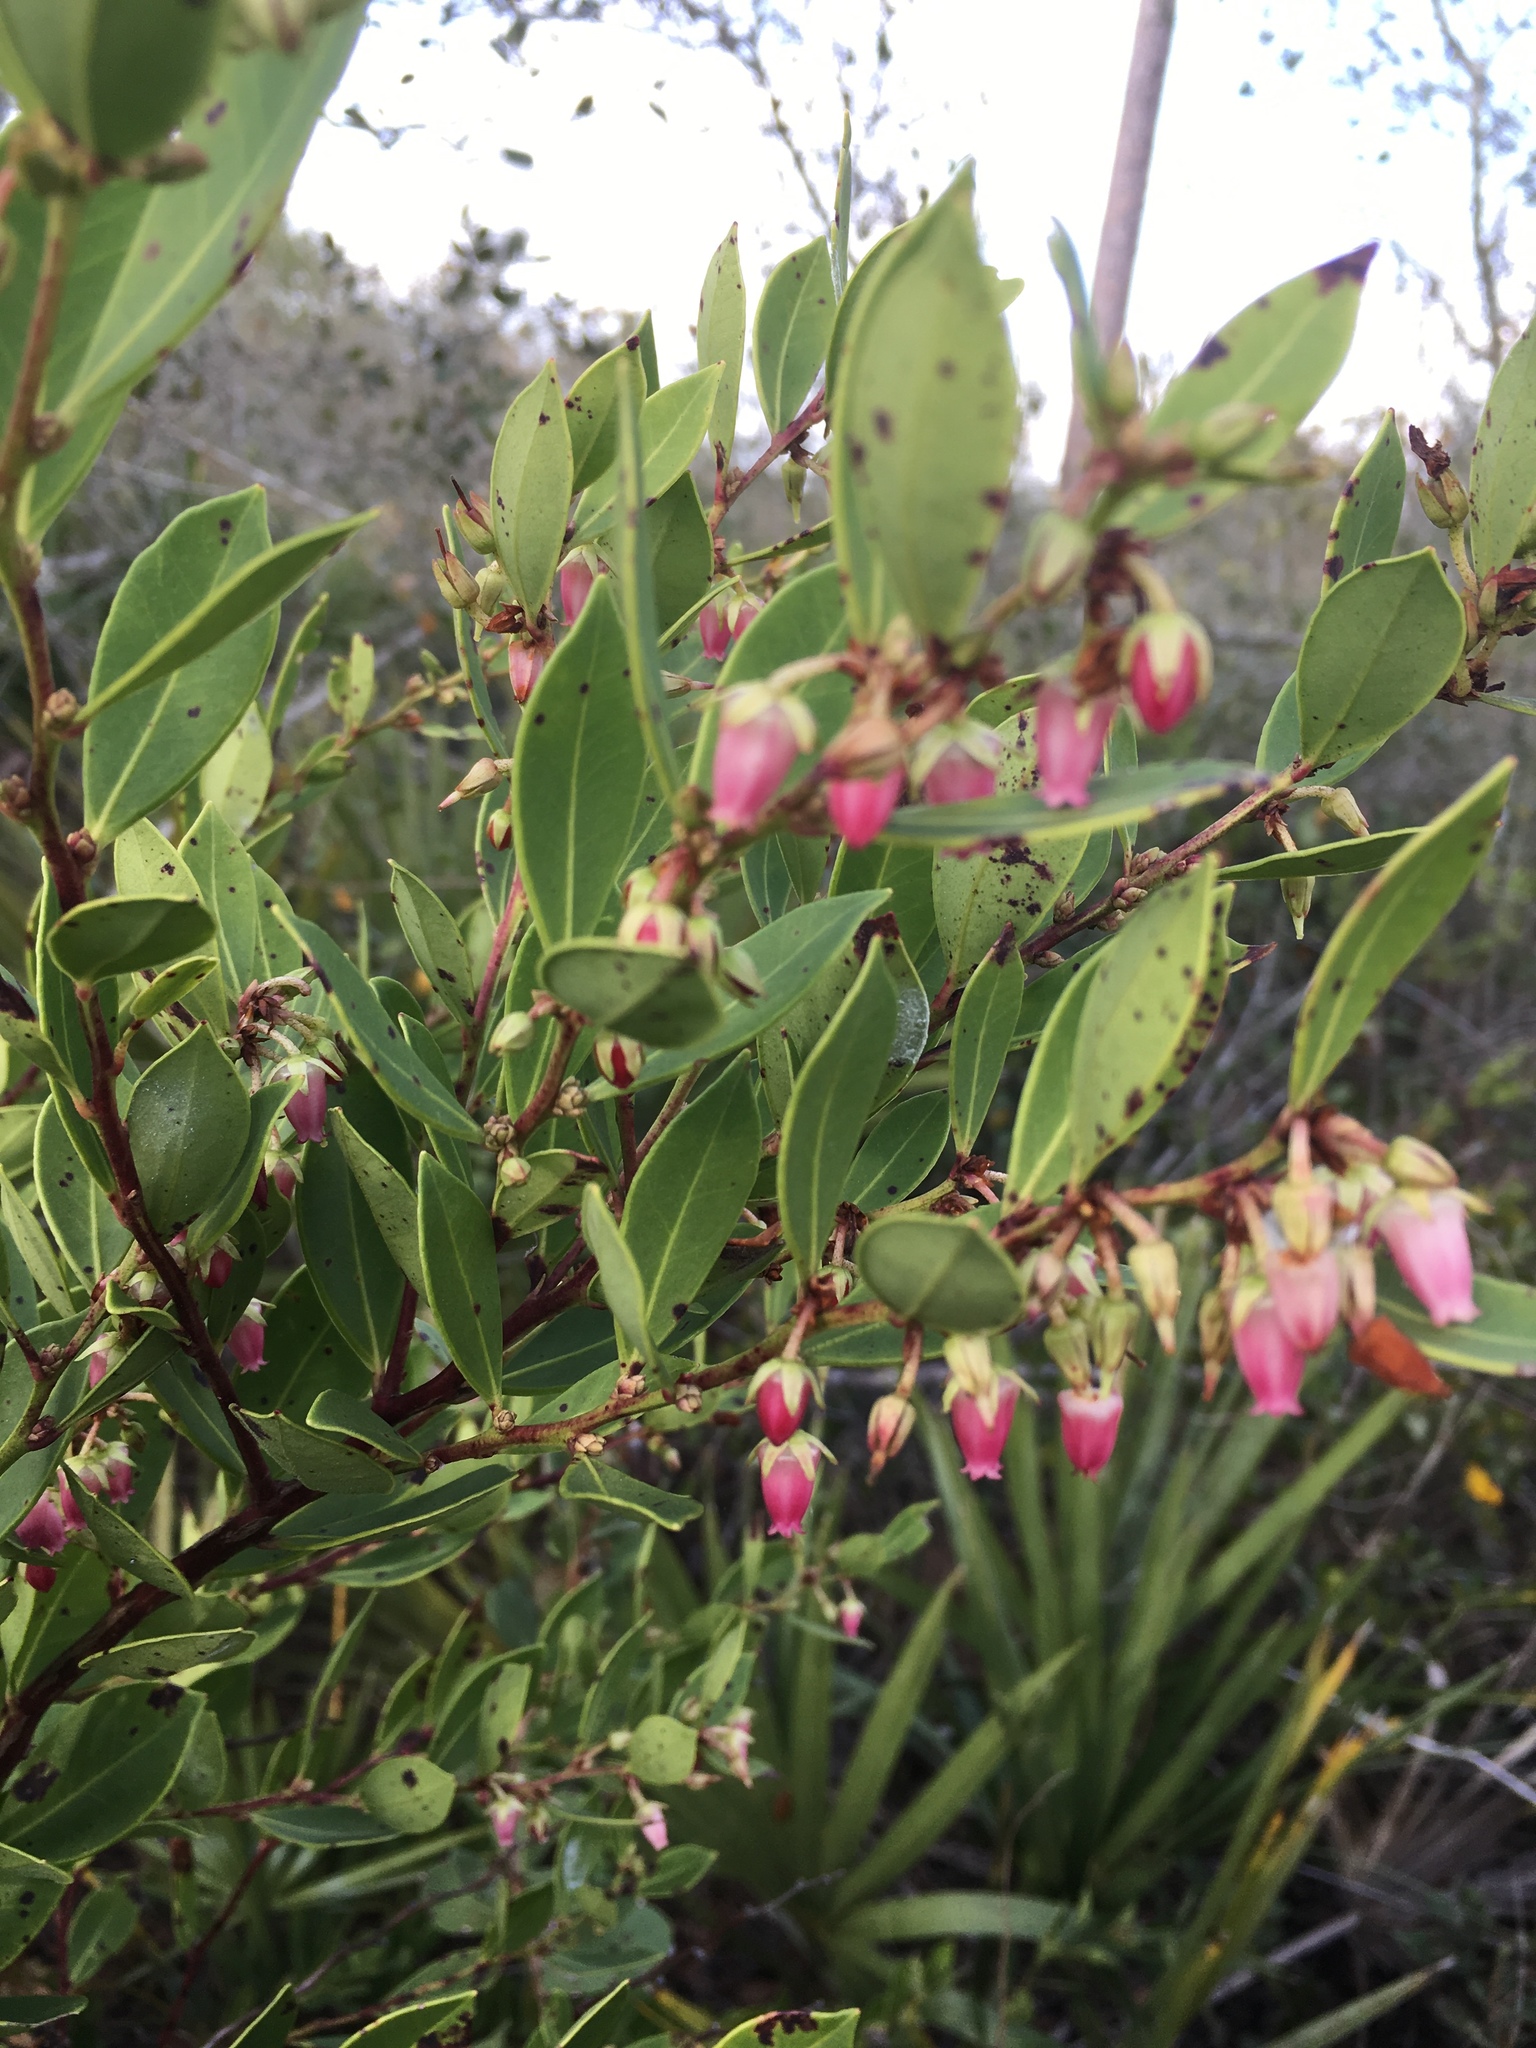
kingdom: Plantae
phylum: Tracheophyta
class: Magnoliopsida
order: Ericales
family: Ericaceae
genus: Lyonia
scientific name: Lyonia lucida
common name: Fetterbush
